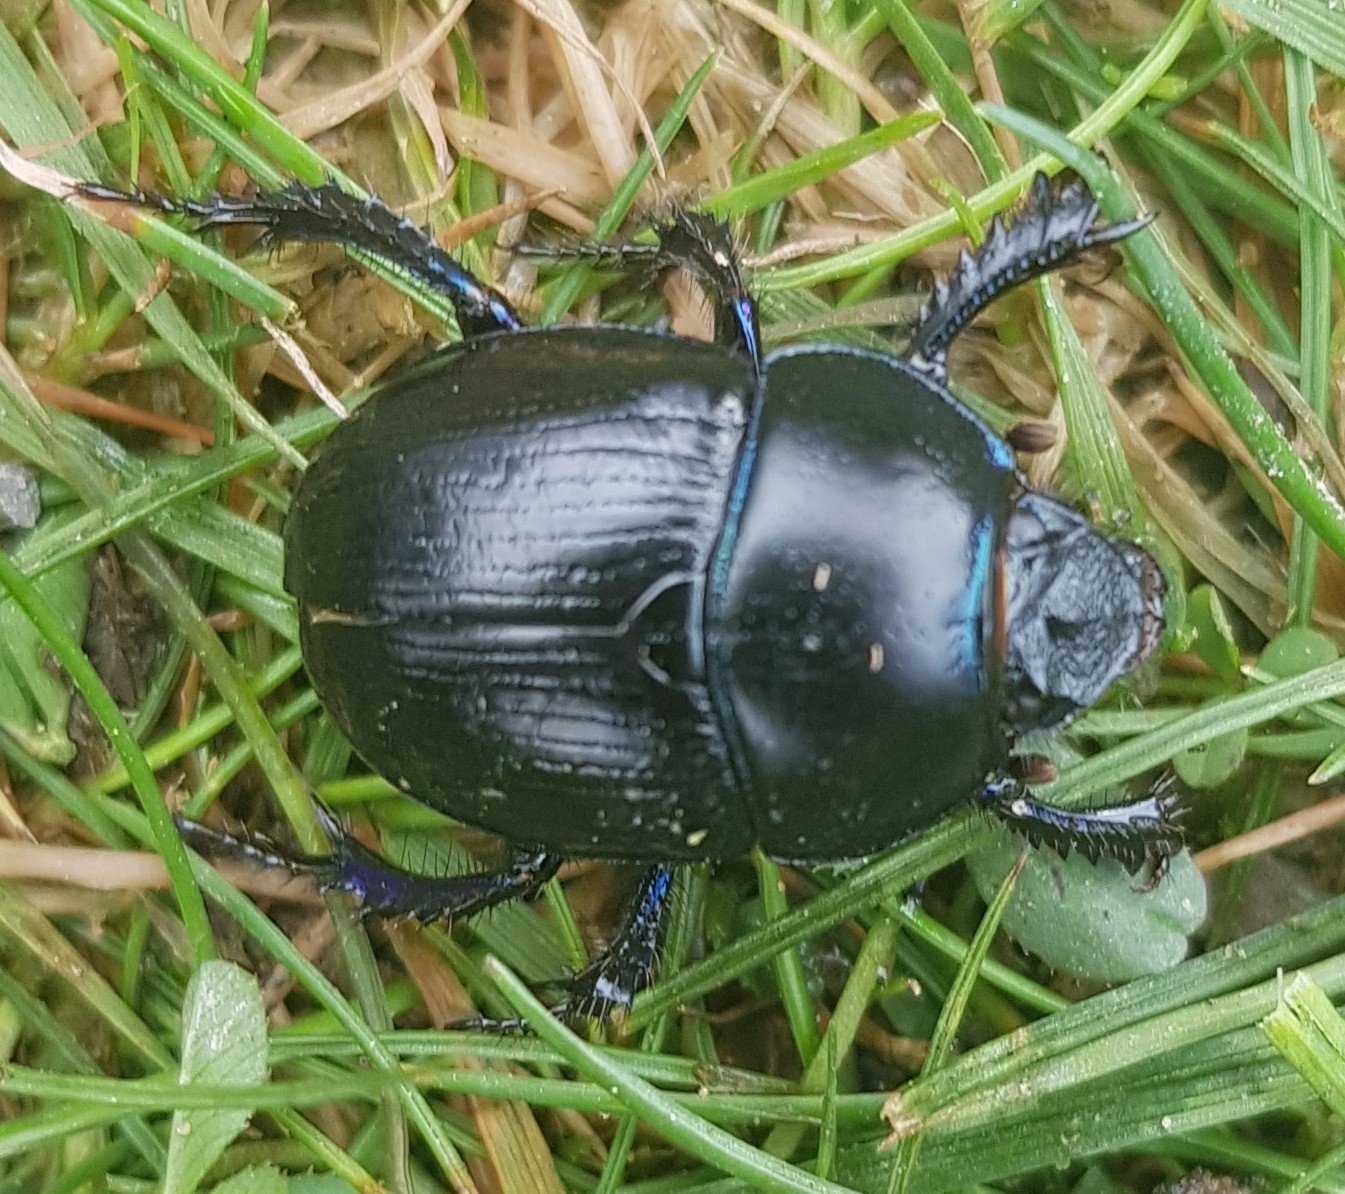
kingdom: Animalia
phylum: Arthropoda
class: Insecta
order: Coleoptera
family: Geotrupidae
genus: Anoplotrupes
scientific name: Anoplotrupes stercorosus
